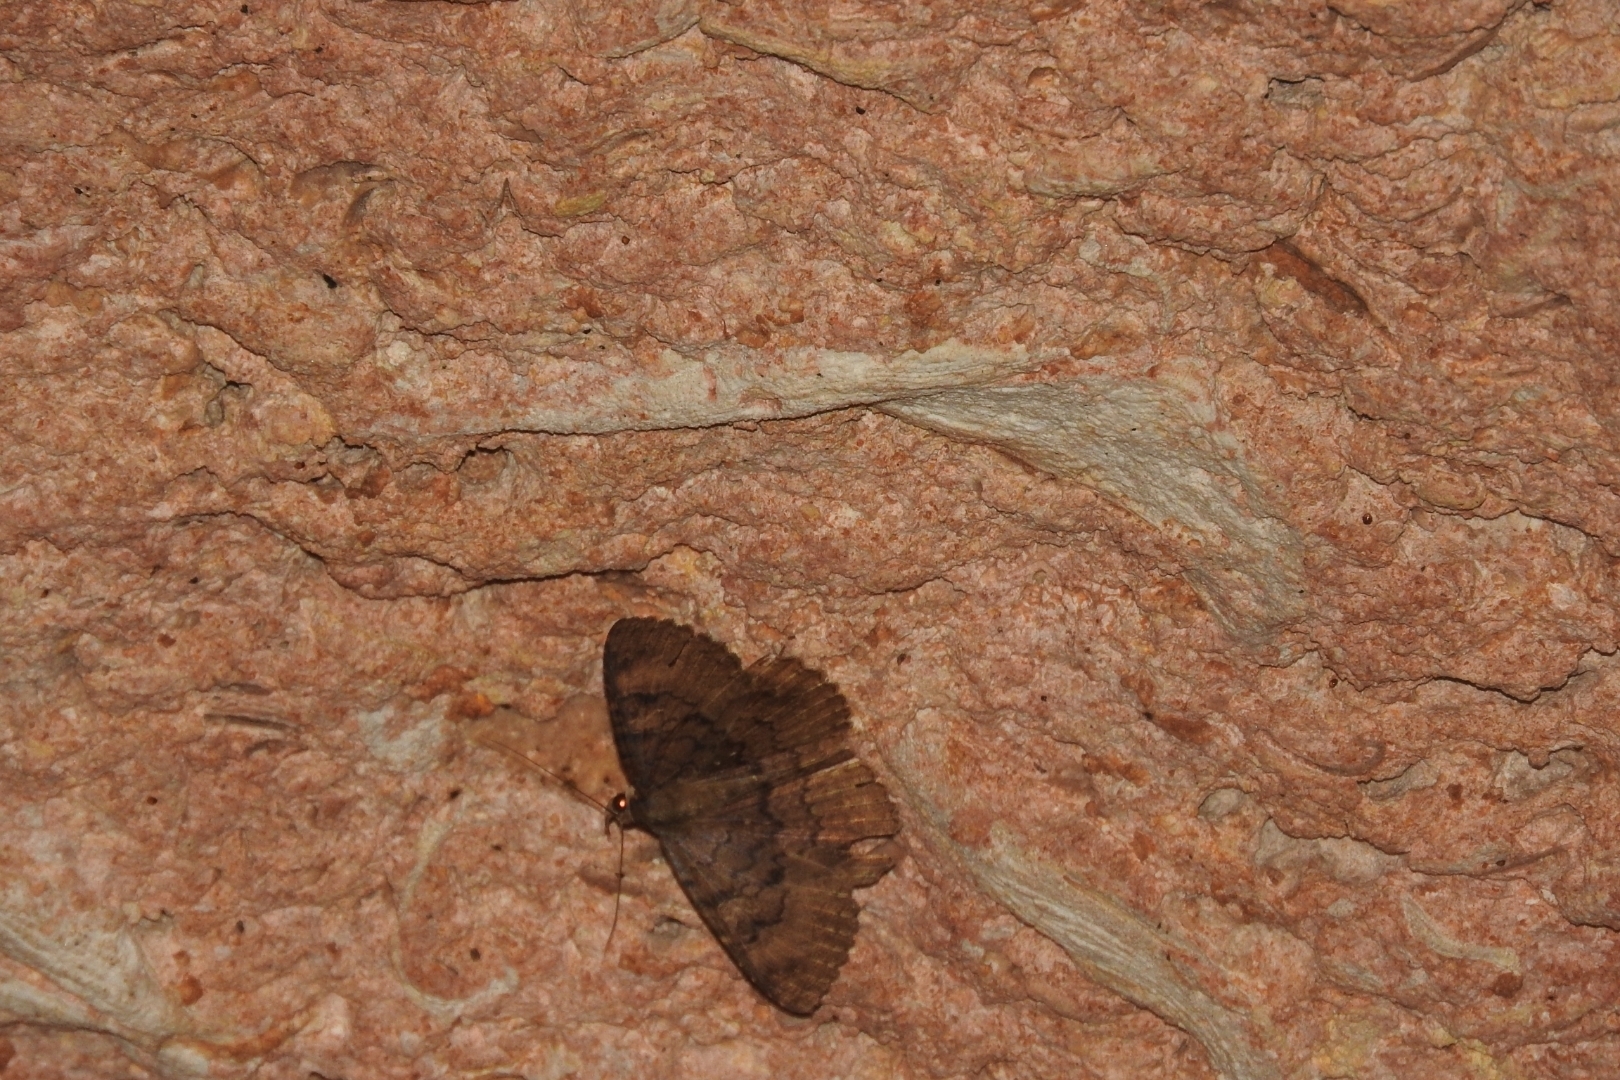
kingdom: Animalia
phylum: Arthropoda
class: Insecta
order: Lepidoptera
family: Erebidae
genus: Latebraria
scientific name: Latebraria amphipyroides
